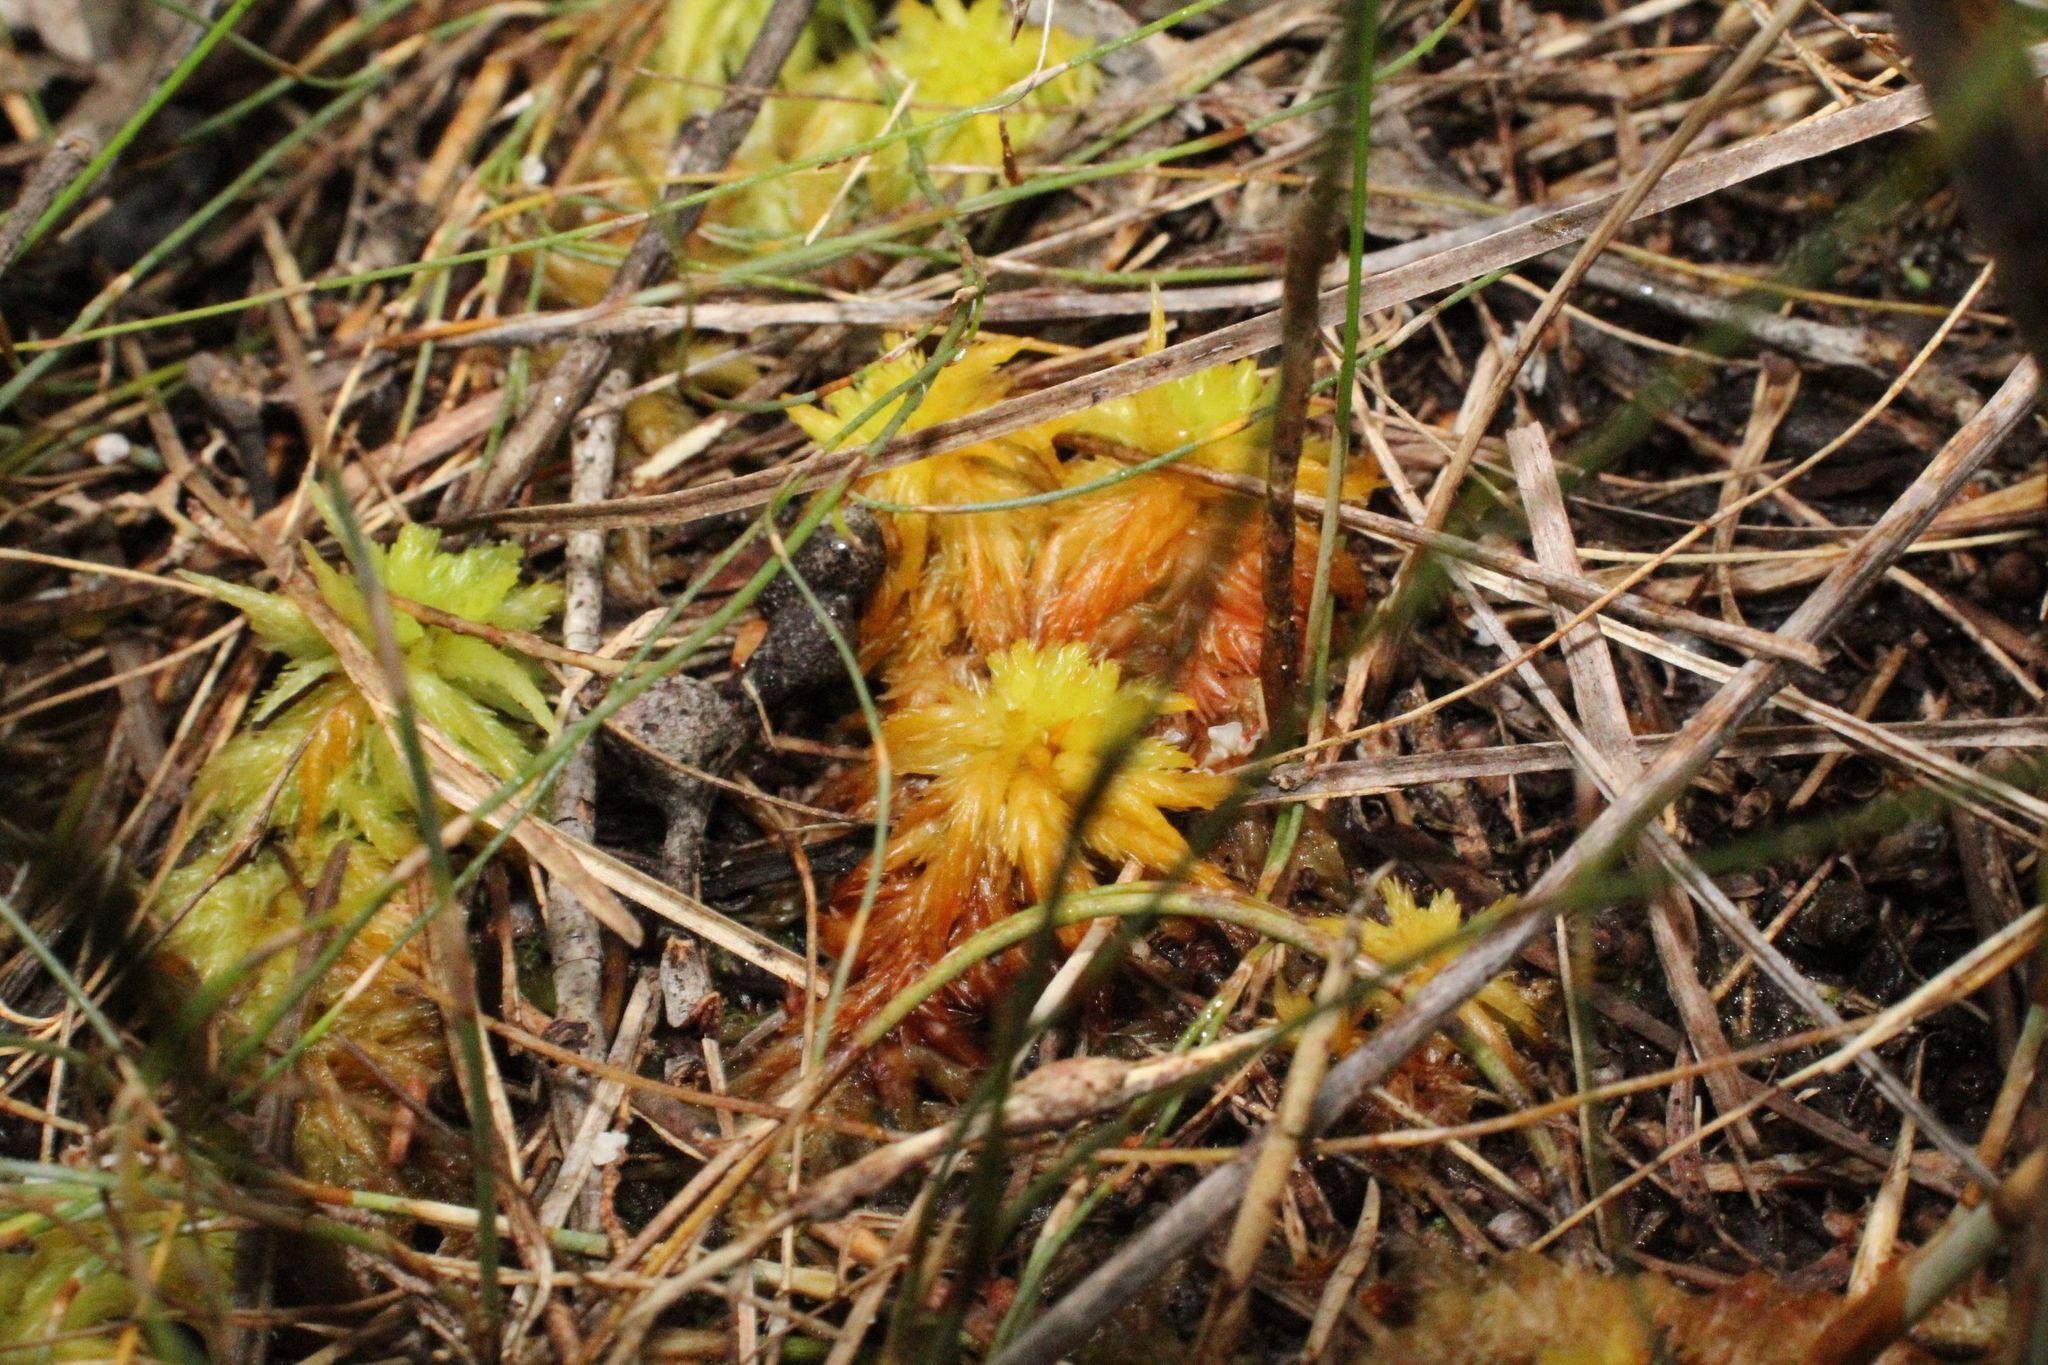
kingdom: Plantae
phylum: Bryophyta
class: Sphagnopsida
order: Sphagnales
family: Sphagnaceae
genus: Sphagnum
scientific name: Sphagnum novozelandicum
